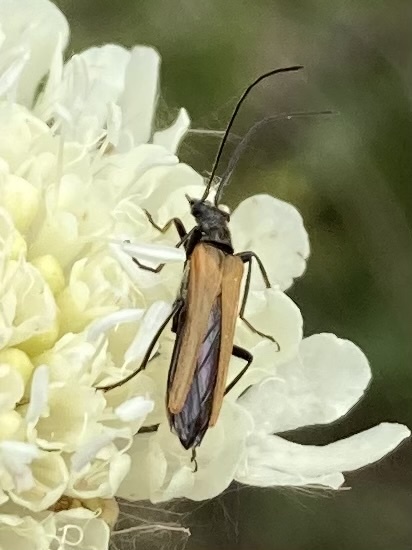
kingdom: Animalia
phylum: Arthropoda
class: Insecta
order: Coleoptera
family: Oedemeridae
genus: Oedemera
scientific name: Oedemera femorata
